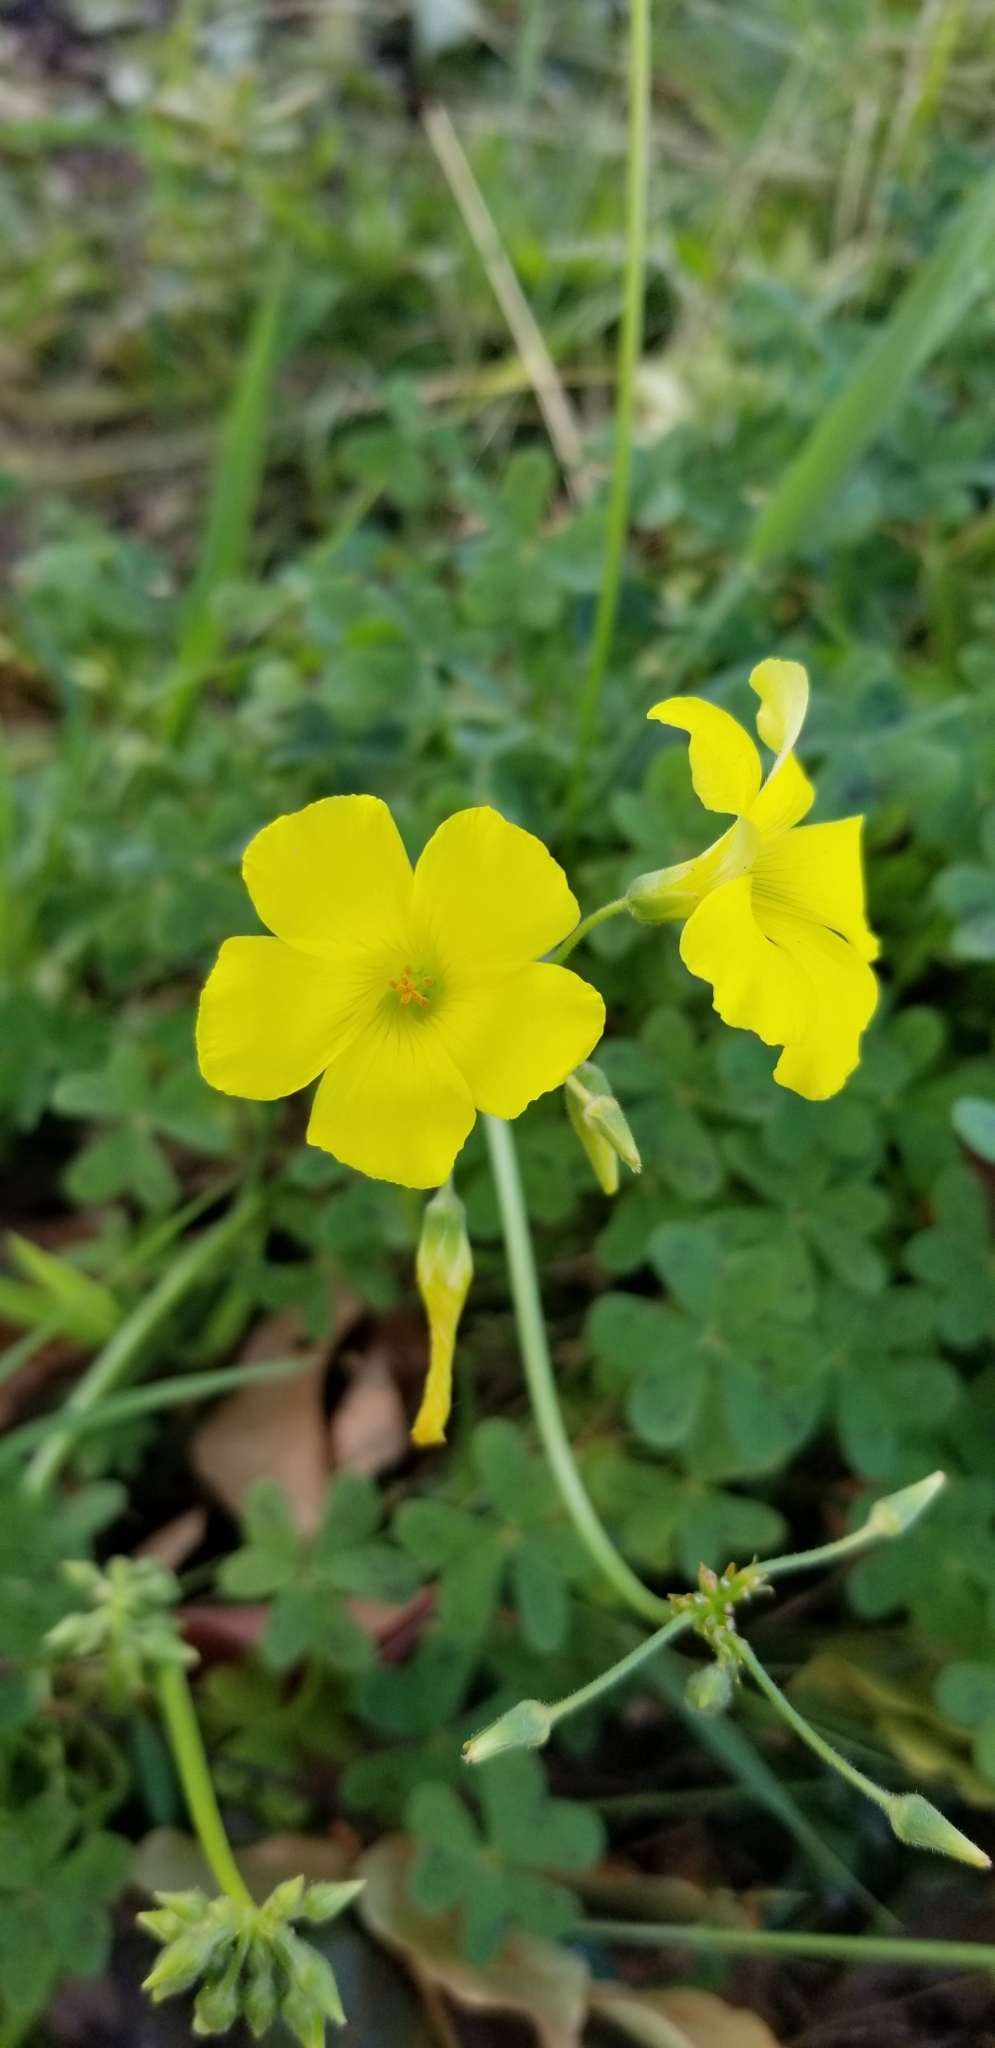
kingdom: Plantae
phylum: Tracheophyta
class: Magnoliopsida
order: Oxalidales
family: Oxalidaceae
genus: Oxalis
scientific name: Oxalis pes-caprae
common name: Bermuda-buttercup
